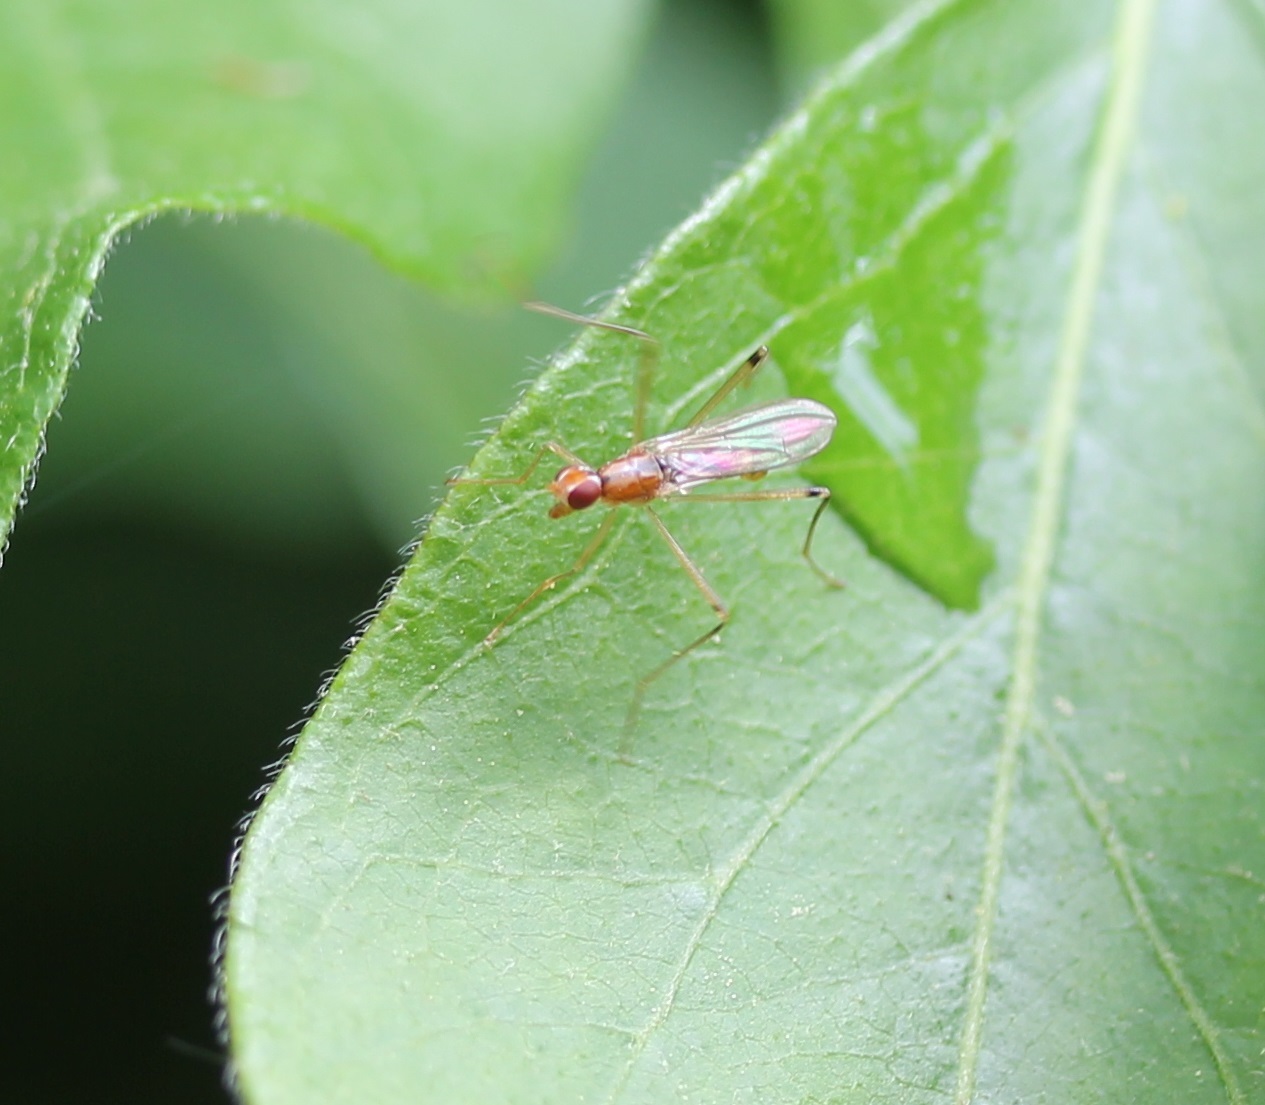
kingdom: Animalia
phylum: Arthropoda
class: Insecta
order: Diptera
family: Micropezidae
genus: Compsobata
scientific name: Compsobata univitta
